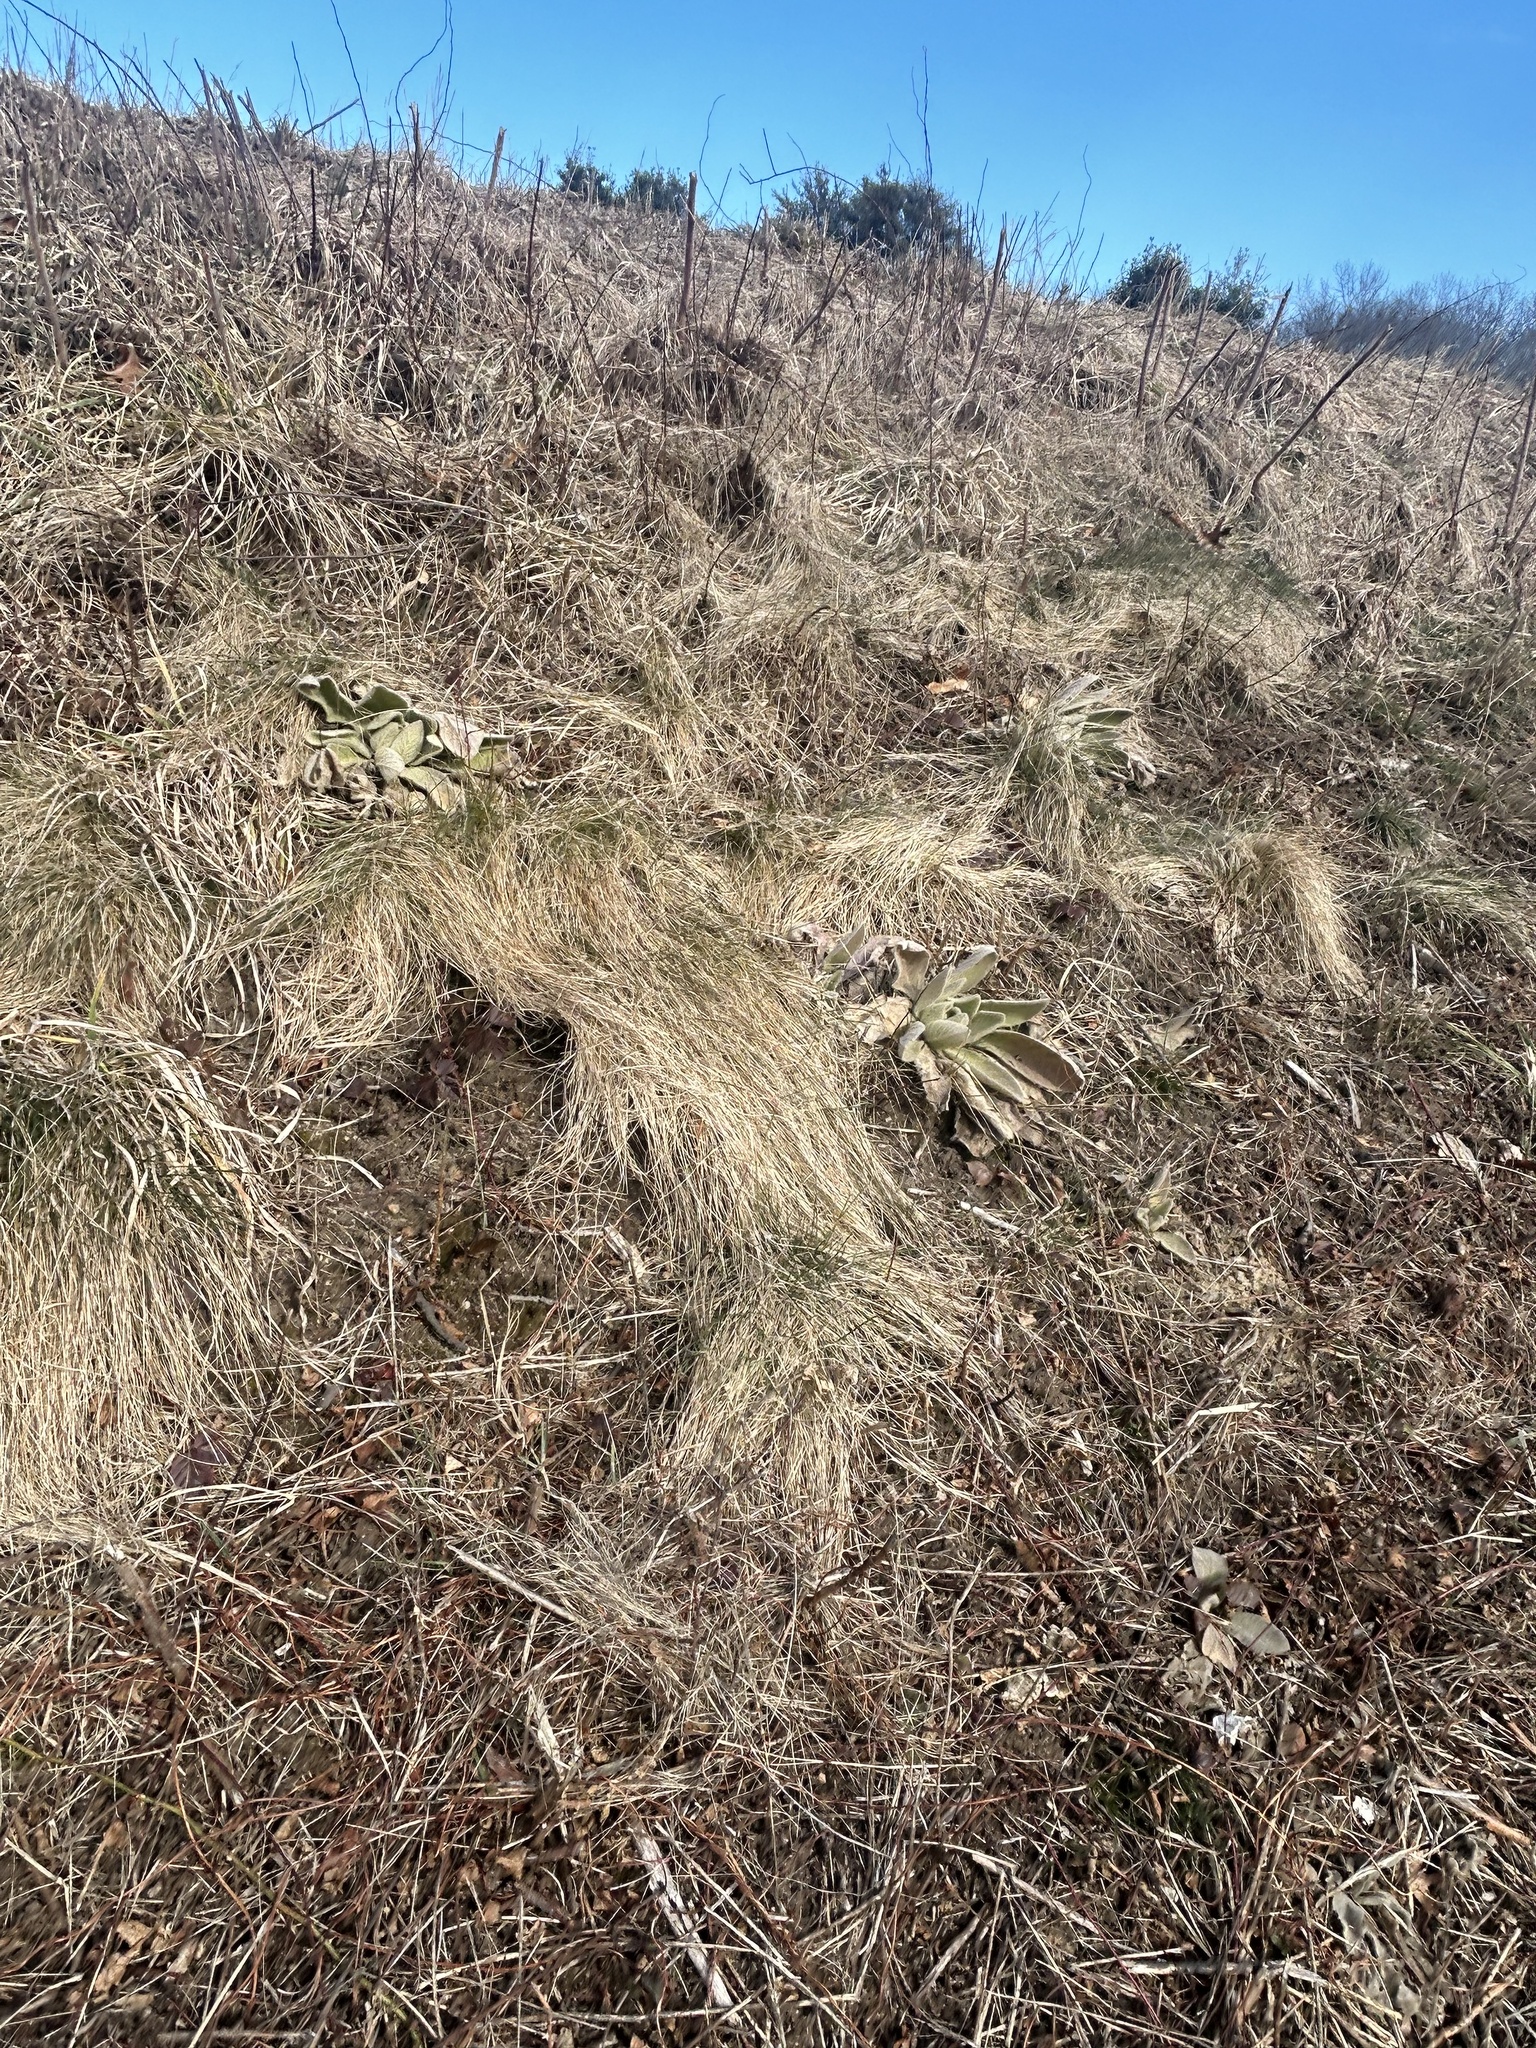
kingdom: Plantae
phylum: Tracheophyta
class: Magnoliopsida
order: Lamiales
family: Scrophulariaceae
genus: Verbascum
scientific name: Verbascum thapsus
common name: Common mullein
